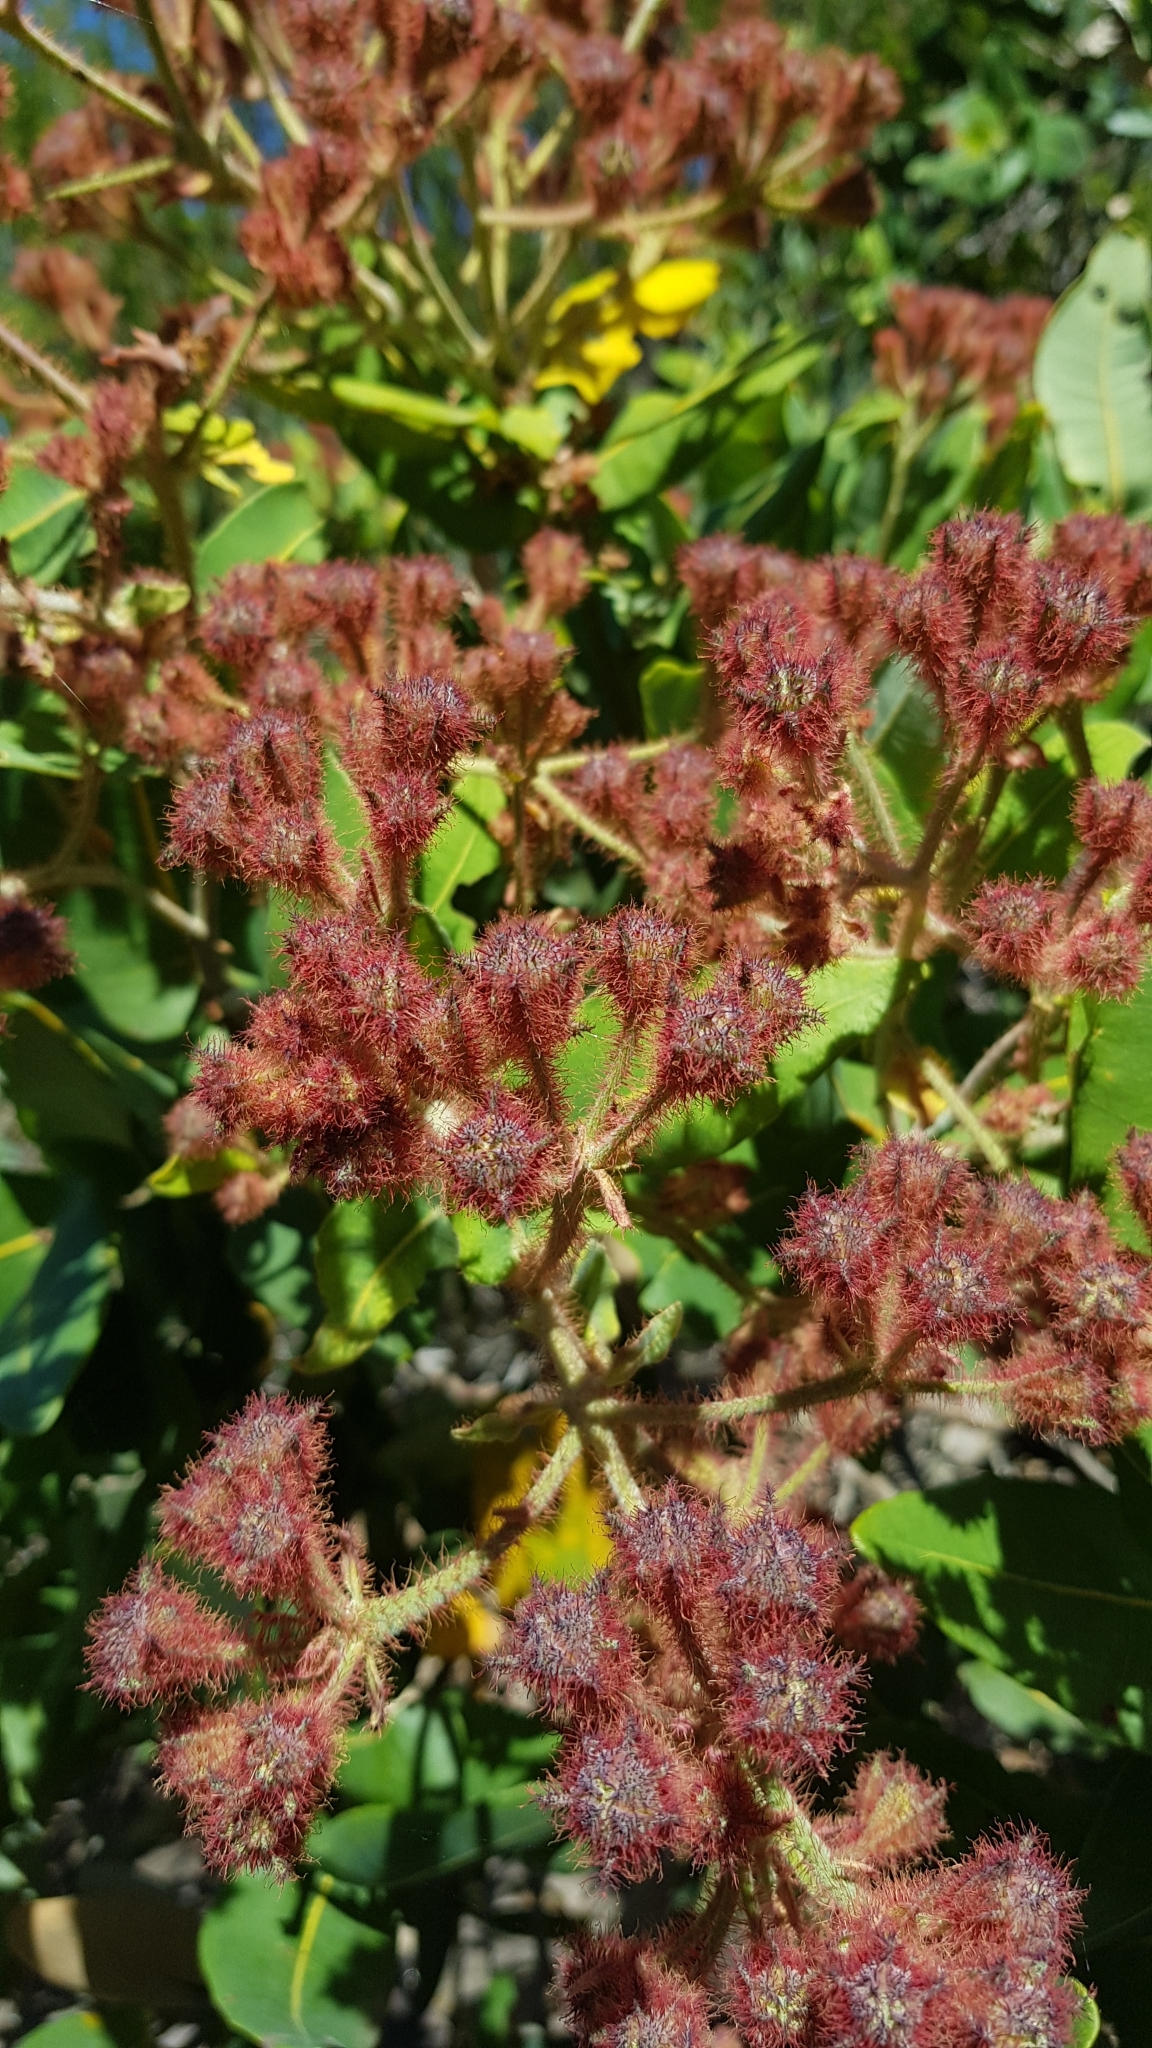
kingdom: Plantae
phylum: Tracheophyta
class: Magnoliopsida
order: Myrtales
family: Myrtaceae
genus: Angophora
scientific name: Angophora hispida
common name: Dwarf-apple
